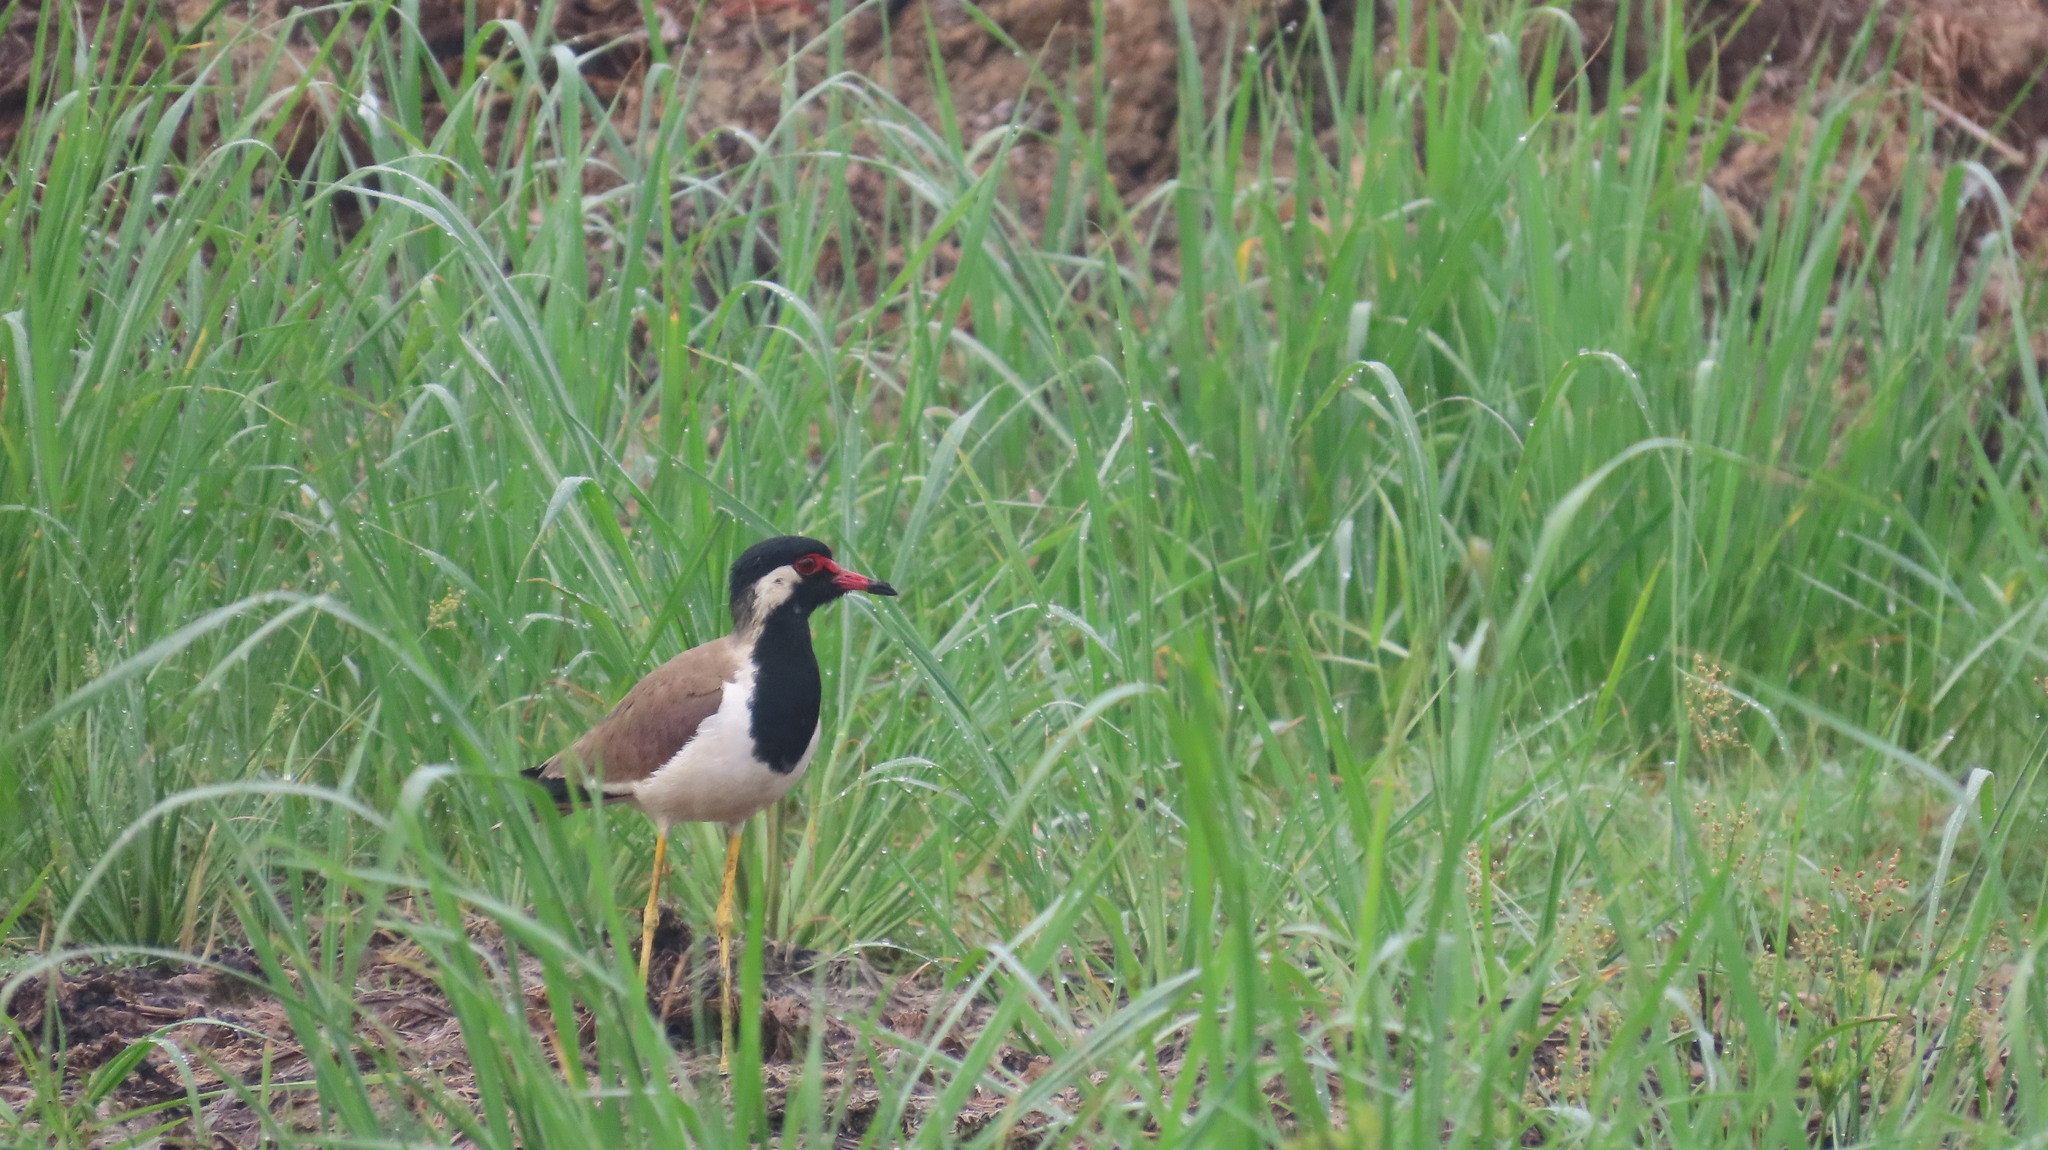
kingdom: Animalia
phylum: Chordata
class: Aves
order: Charadriiformes
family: Charadriidae
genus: Vanellus
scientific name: Vanellus indicus
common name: Red-wattled lapwing
